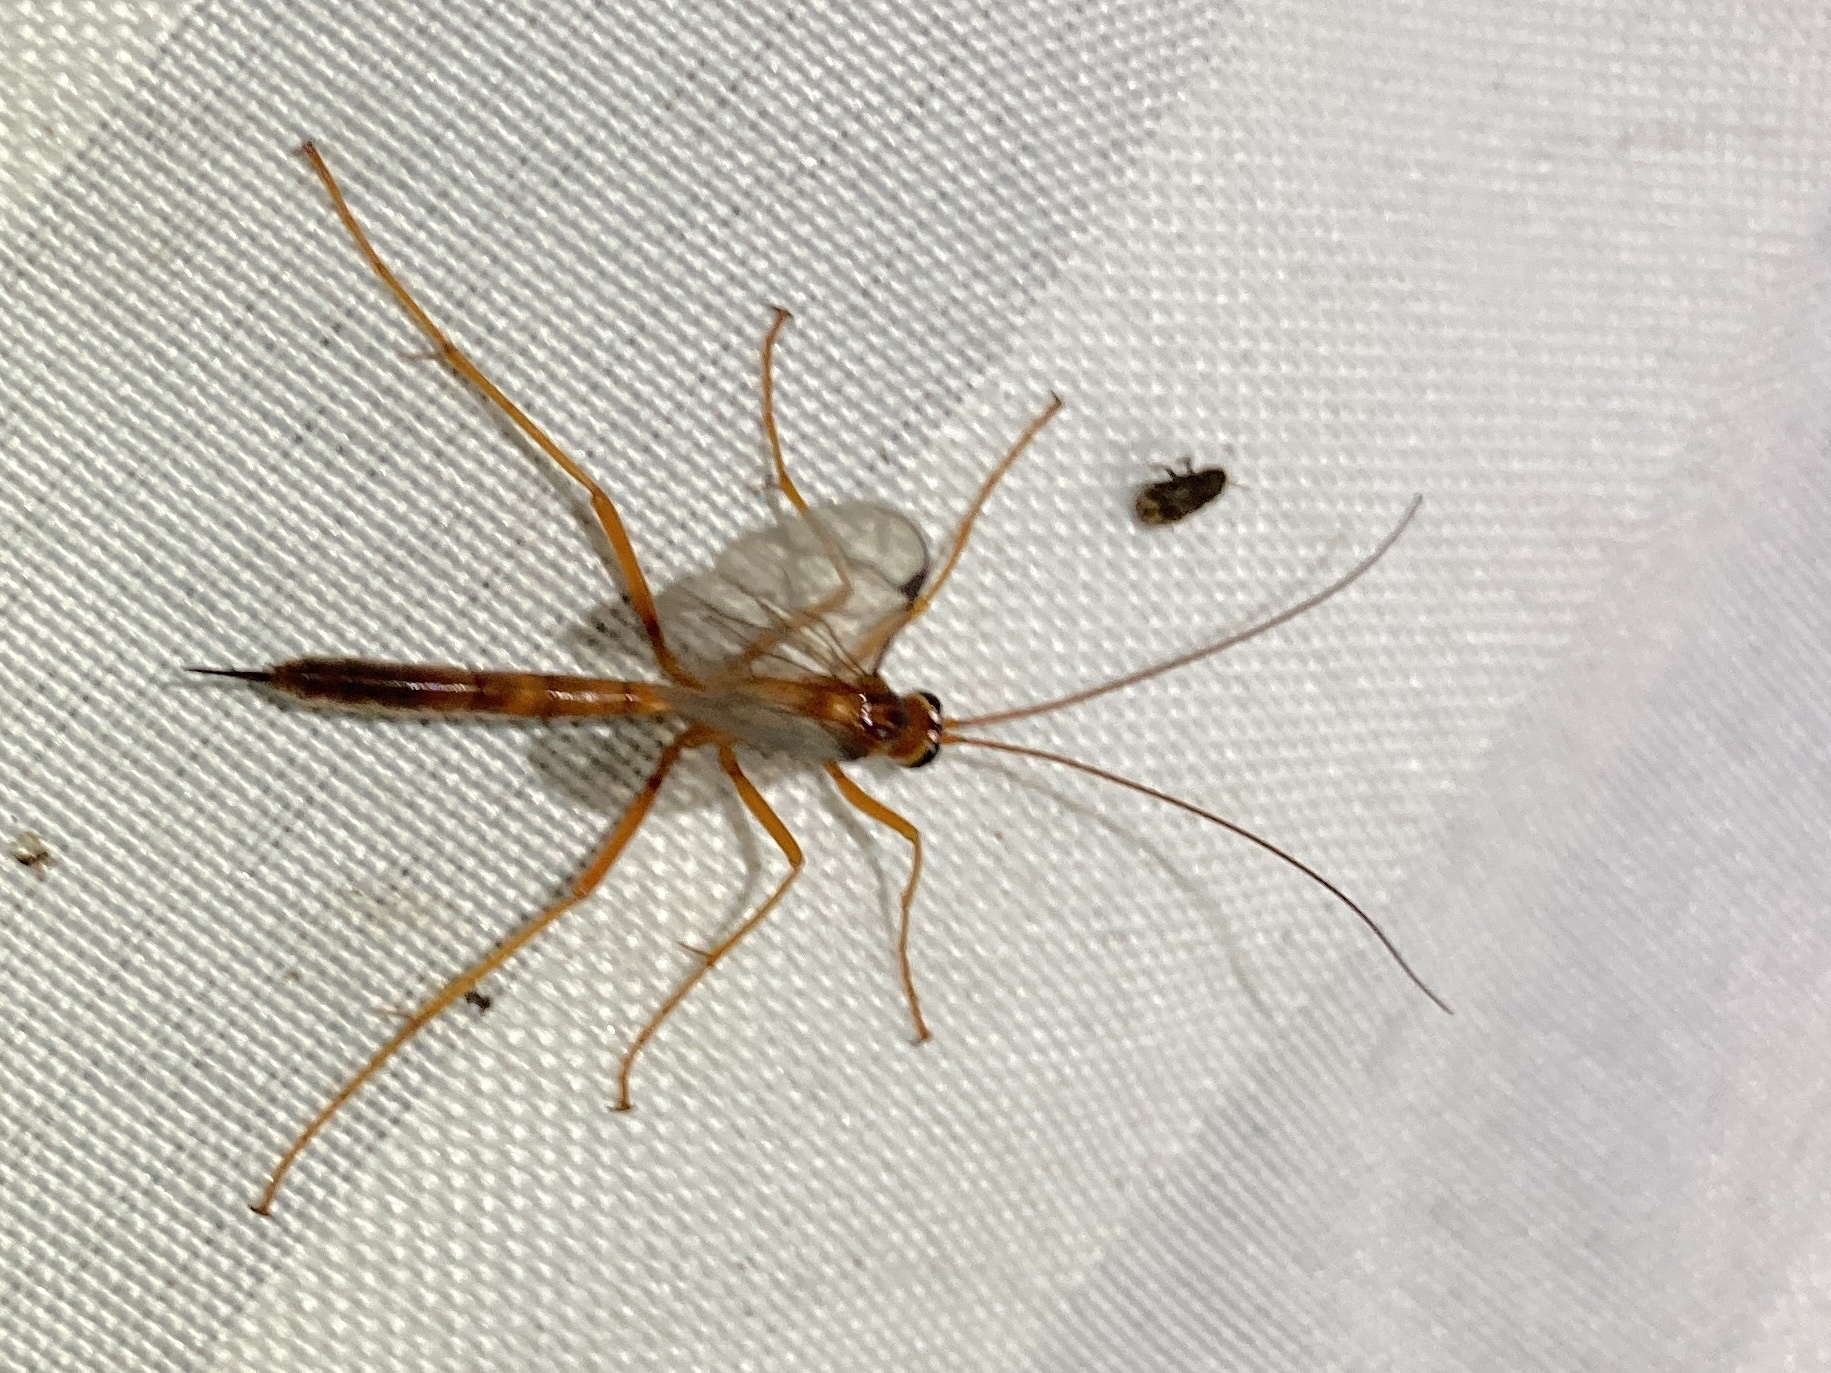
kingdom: Animalia
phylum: Arthropoda
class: Insecta
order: Coleoptera
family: Curculionidae
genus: Chaetoptelius
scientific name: Chaetoptelius mundulus
